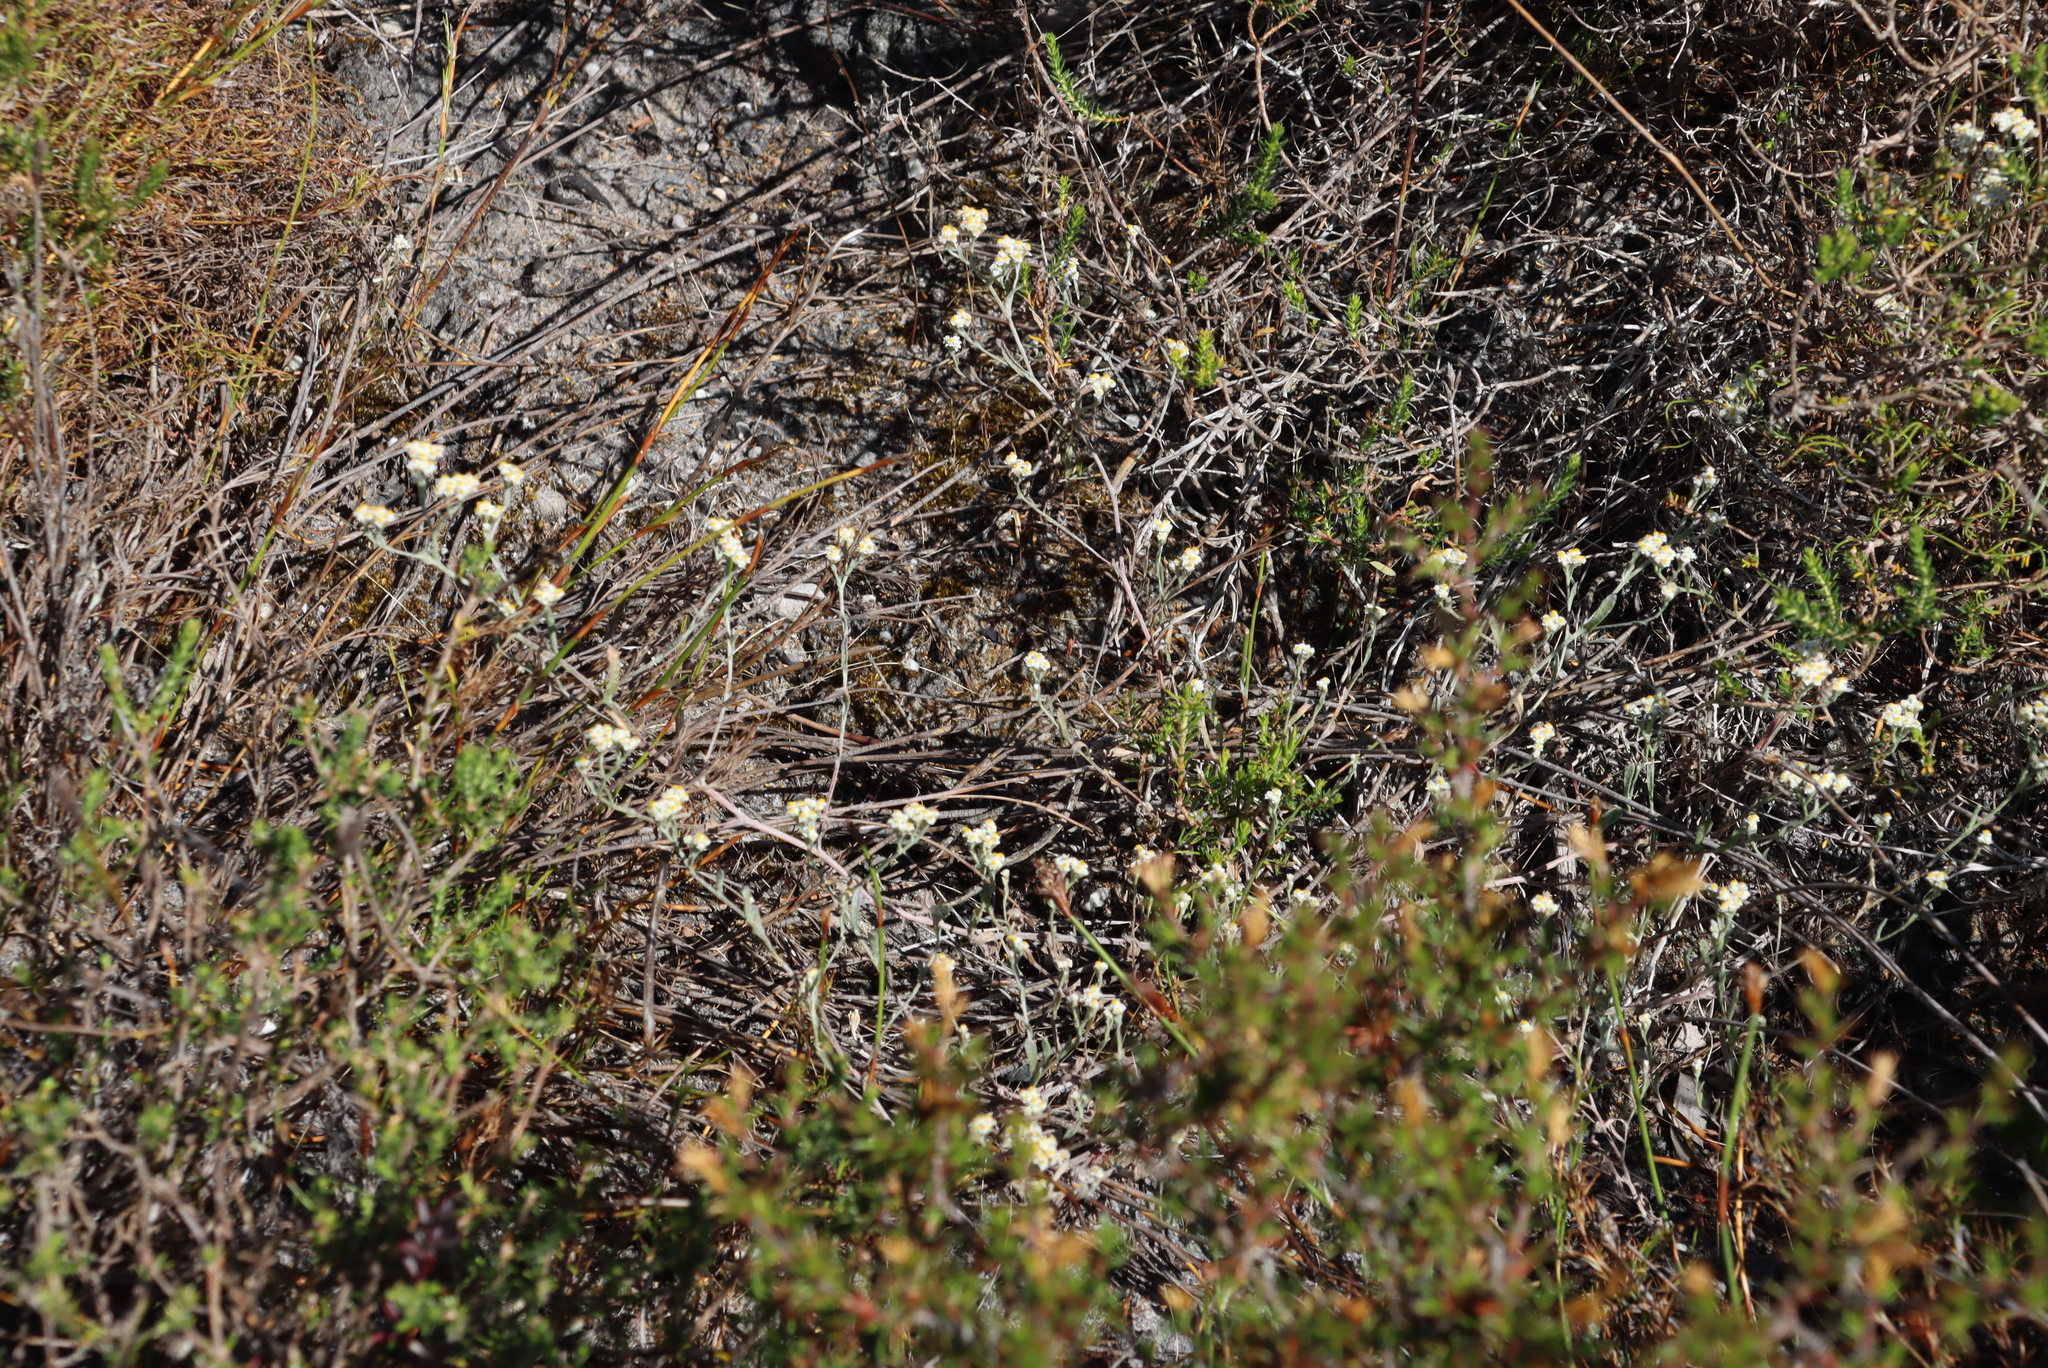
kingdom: Plantae
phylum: Tracheophyta
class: Magnoliopsida
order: Asterales
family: Asteraceae
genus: Helichrysum
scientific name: Helichrysum indicum
